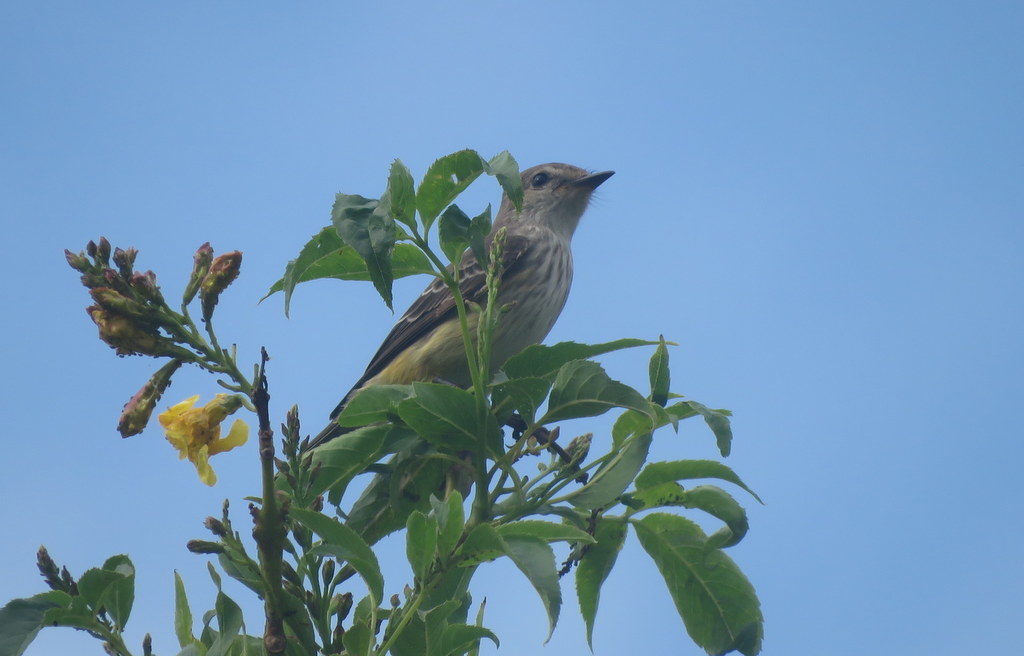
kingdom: Animalia
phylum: Chordata
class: Aves
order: Passeriformes
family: Tyrannidae
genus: Pyrocephalus
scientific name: Pyrocephalus rubinus
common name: Vermilion flycatcher
